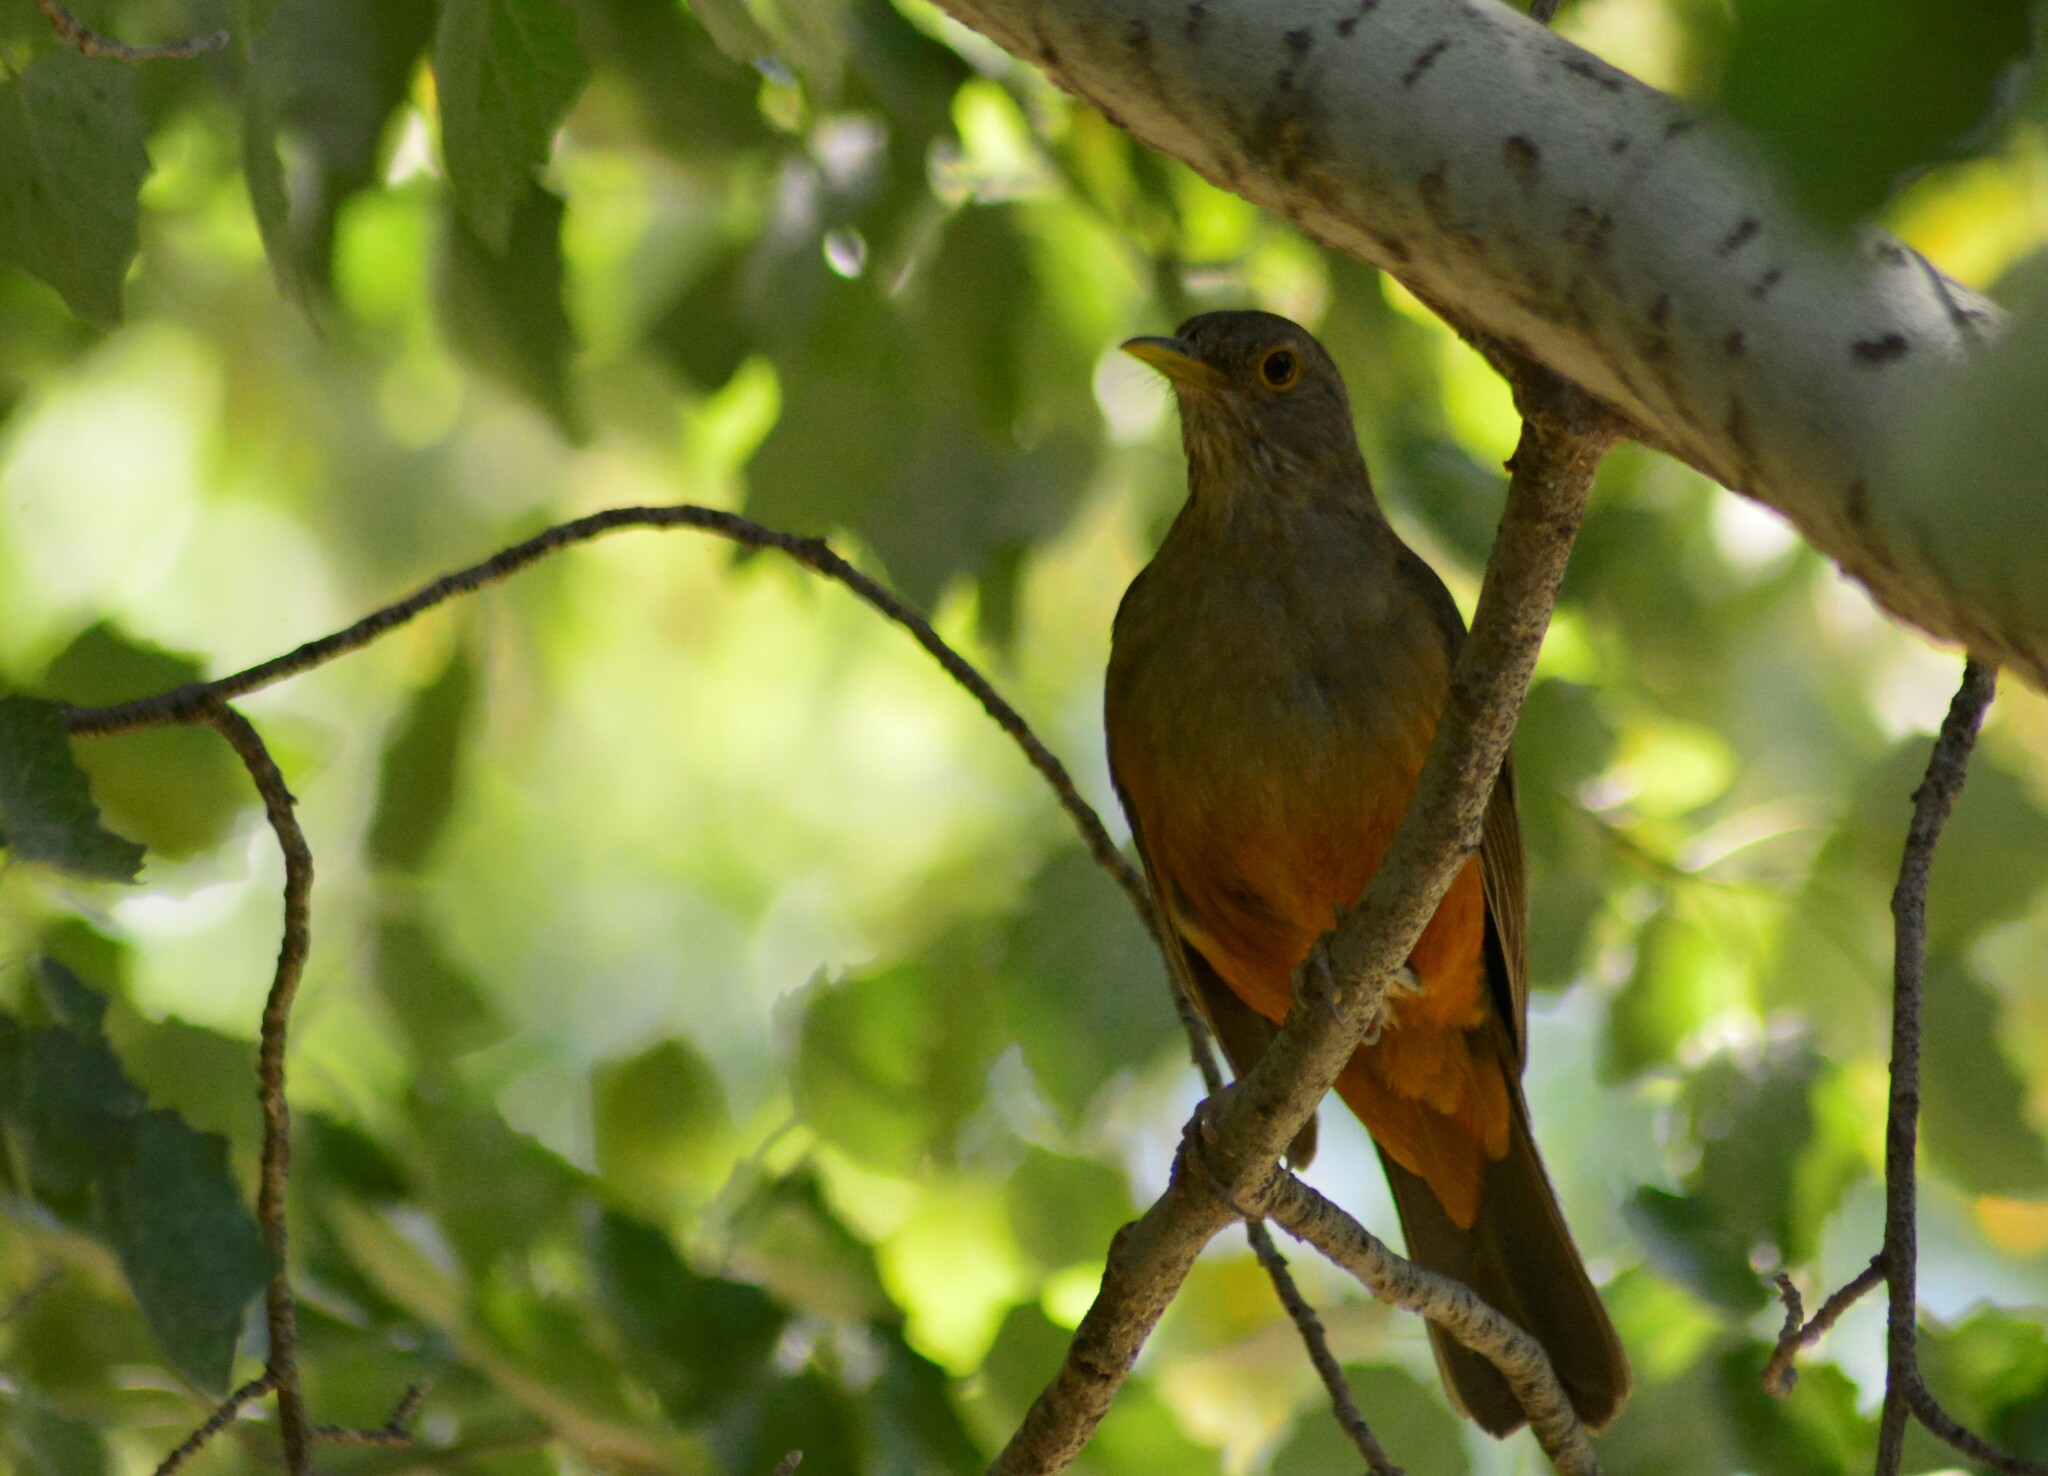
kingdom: Animalia
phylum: Chordata
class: Aves
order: Passeriformes
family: Turdidae
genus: Turdus
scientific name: Turdus rufiventris
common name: Rufous-bellied thrush
